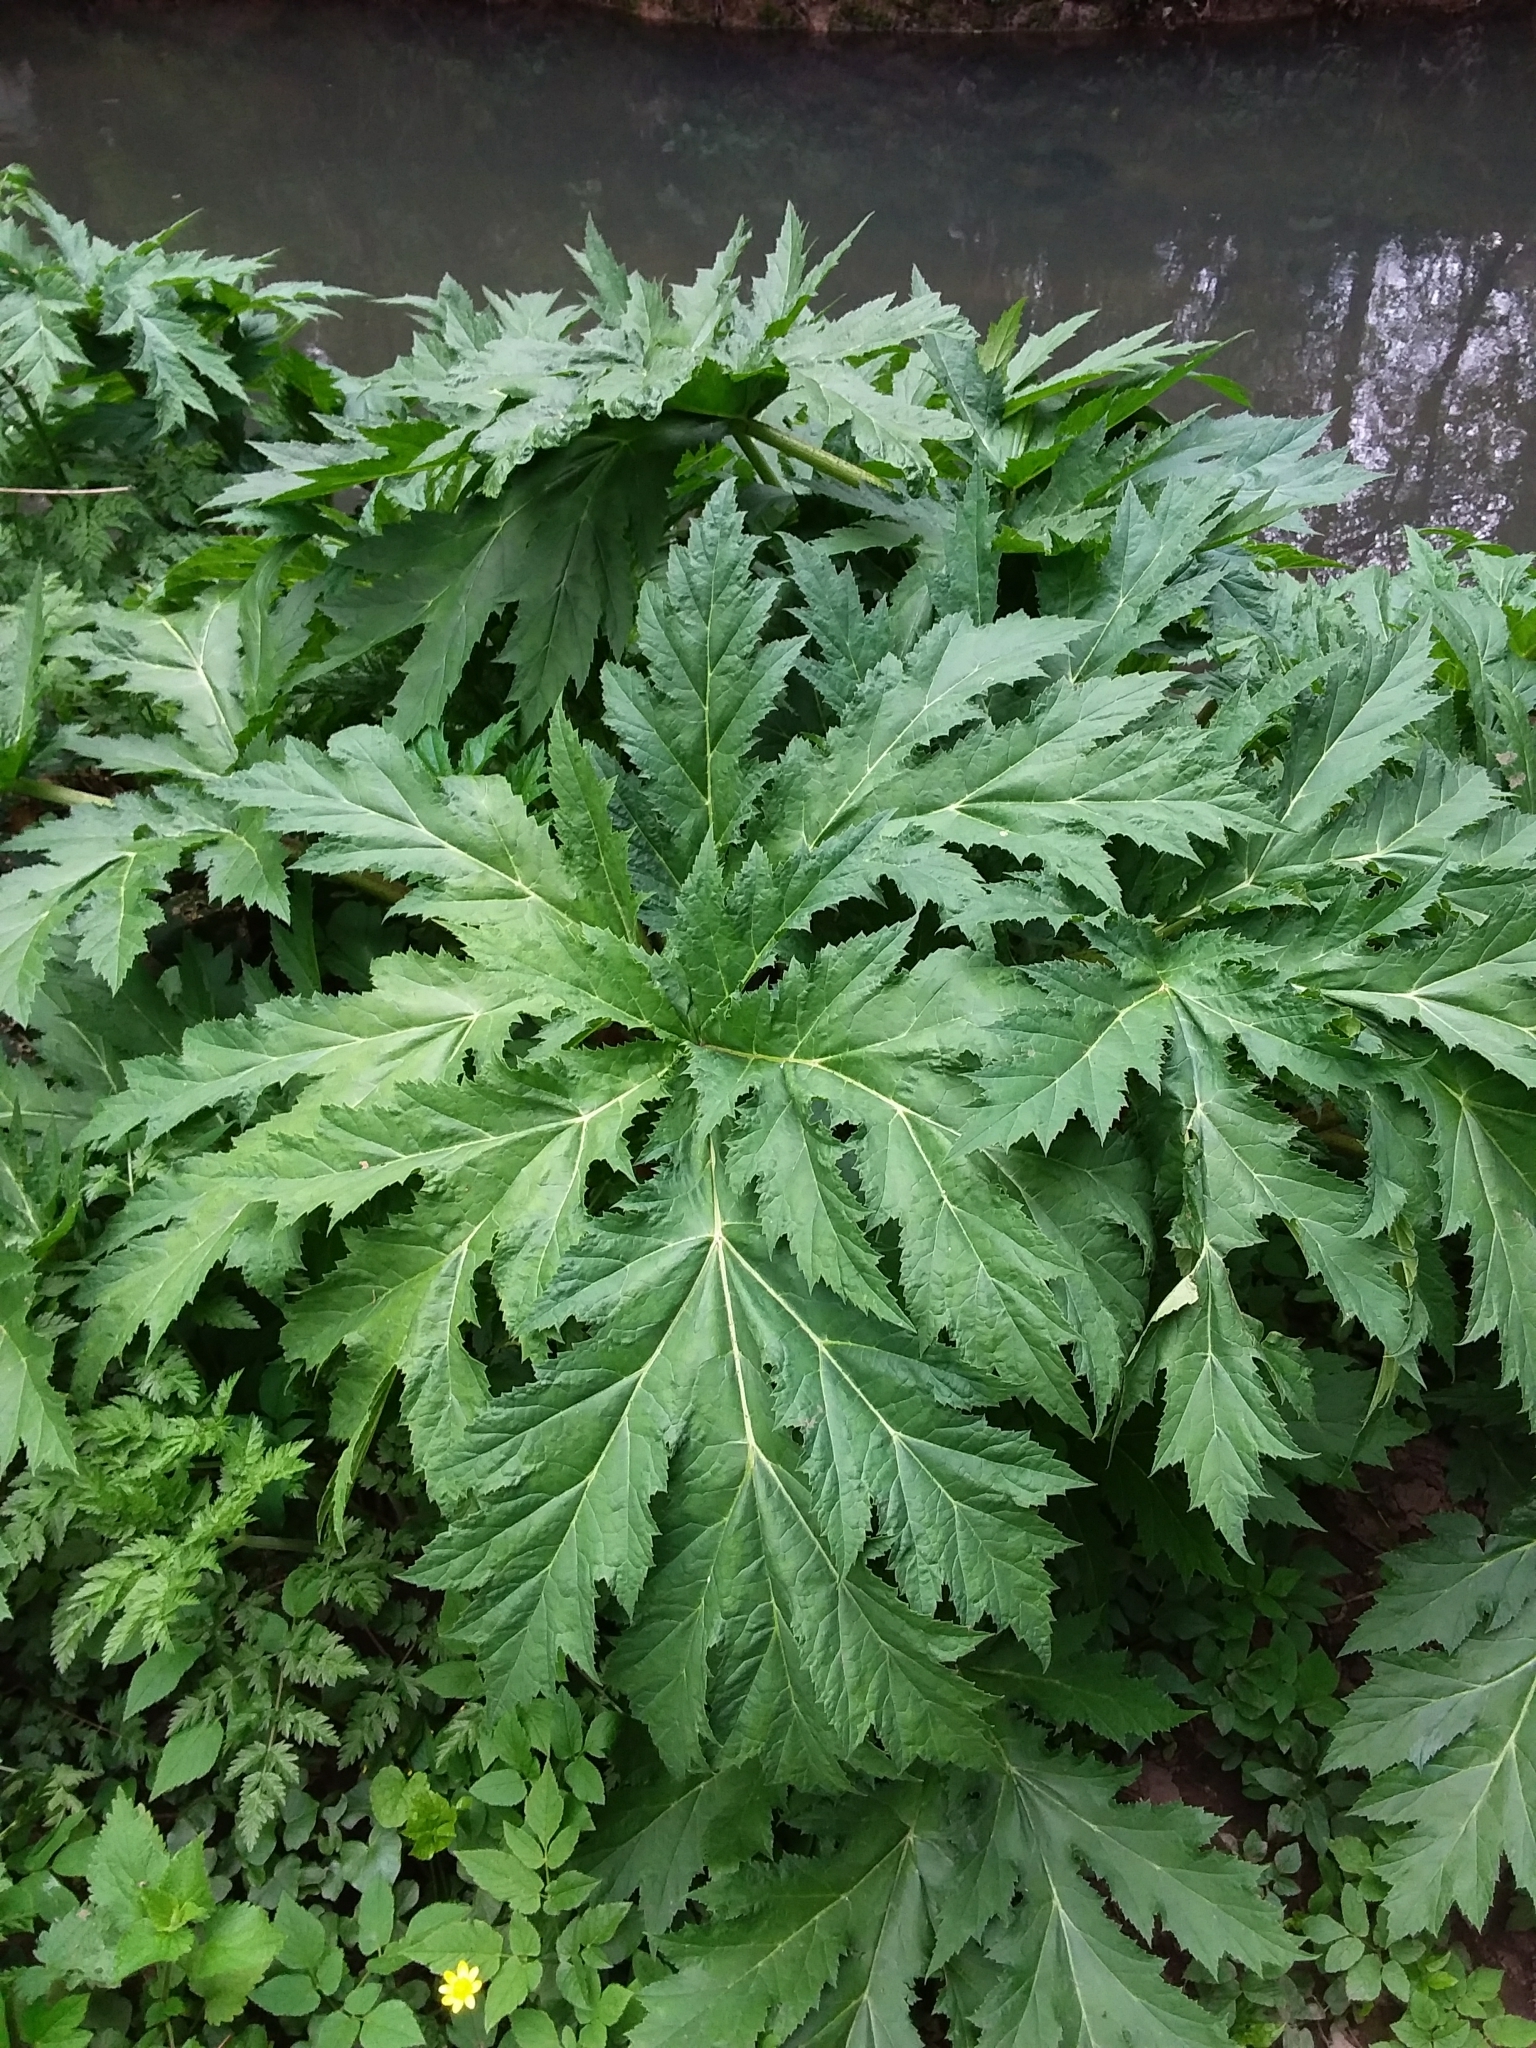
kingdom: Plantae
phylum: Tracheophyta
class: Magnoliopsida
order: Apiales
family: Apiaceae
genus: Heracleum
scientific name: Heracleum mantegazzianum
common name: Giant hogweed
